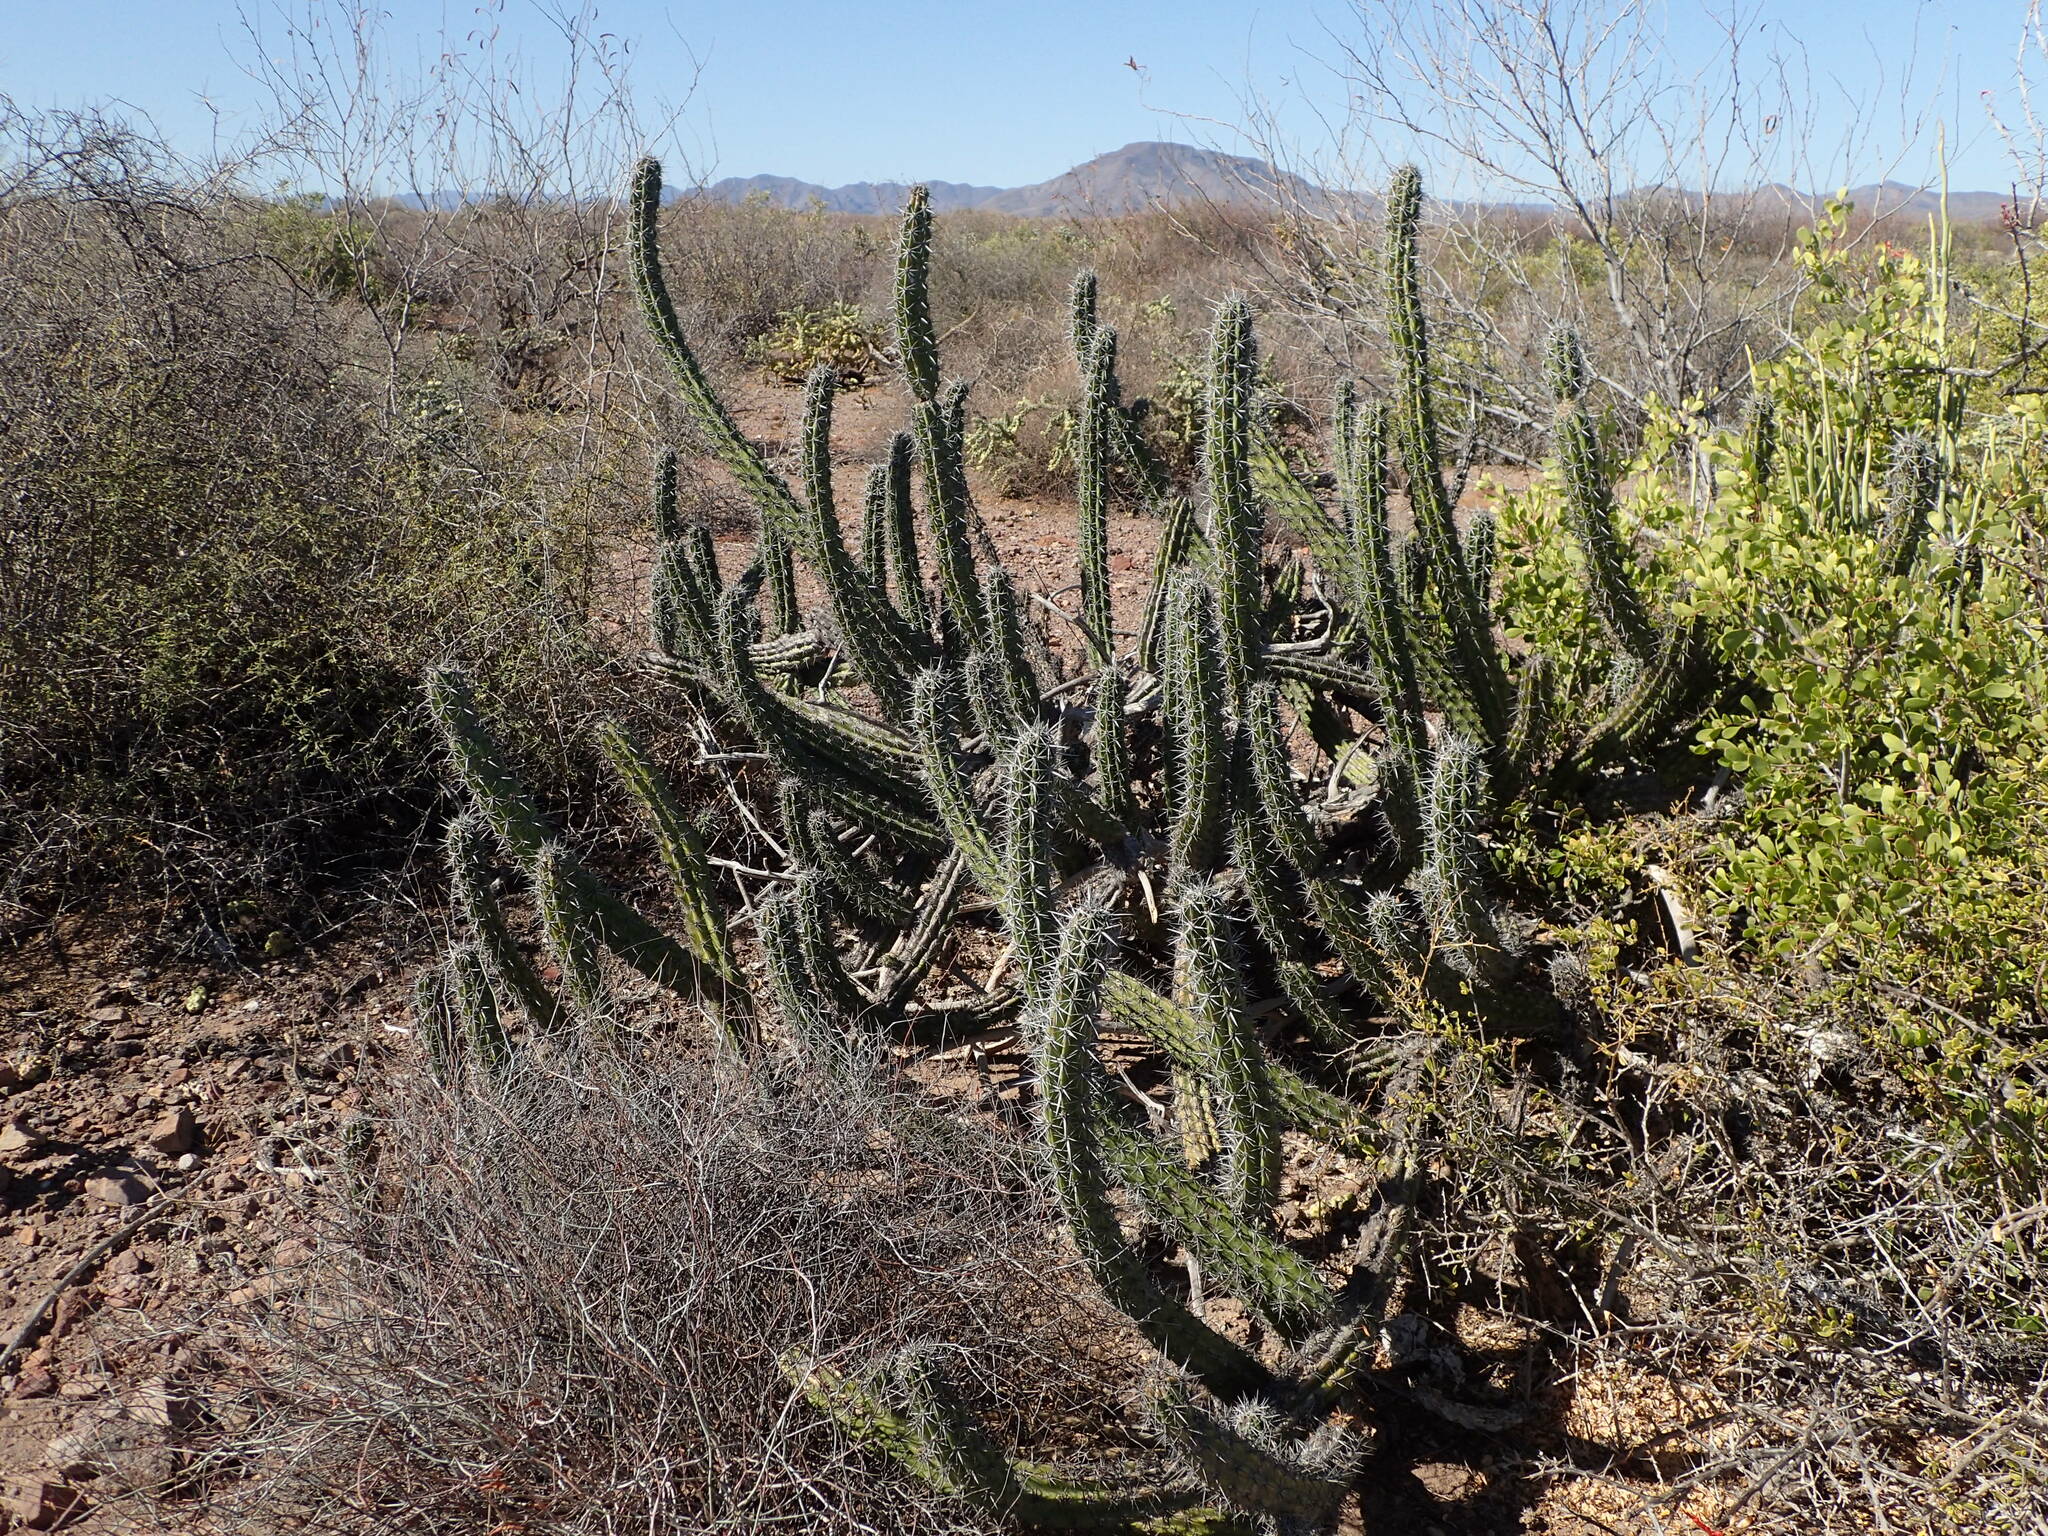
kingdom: Plantae
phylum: Tracheophyta
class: Magnoliopsida
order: Caryophyllales
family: Cactaceae
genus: Stenocereus
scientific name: Stenocereus gummosus
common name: Dagger cactus
